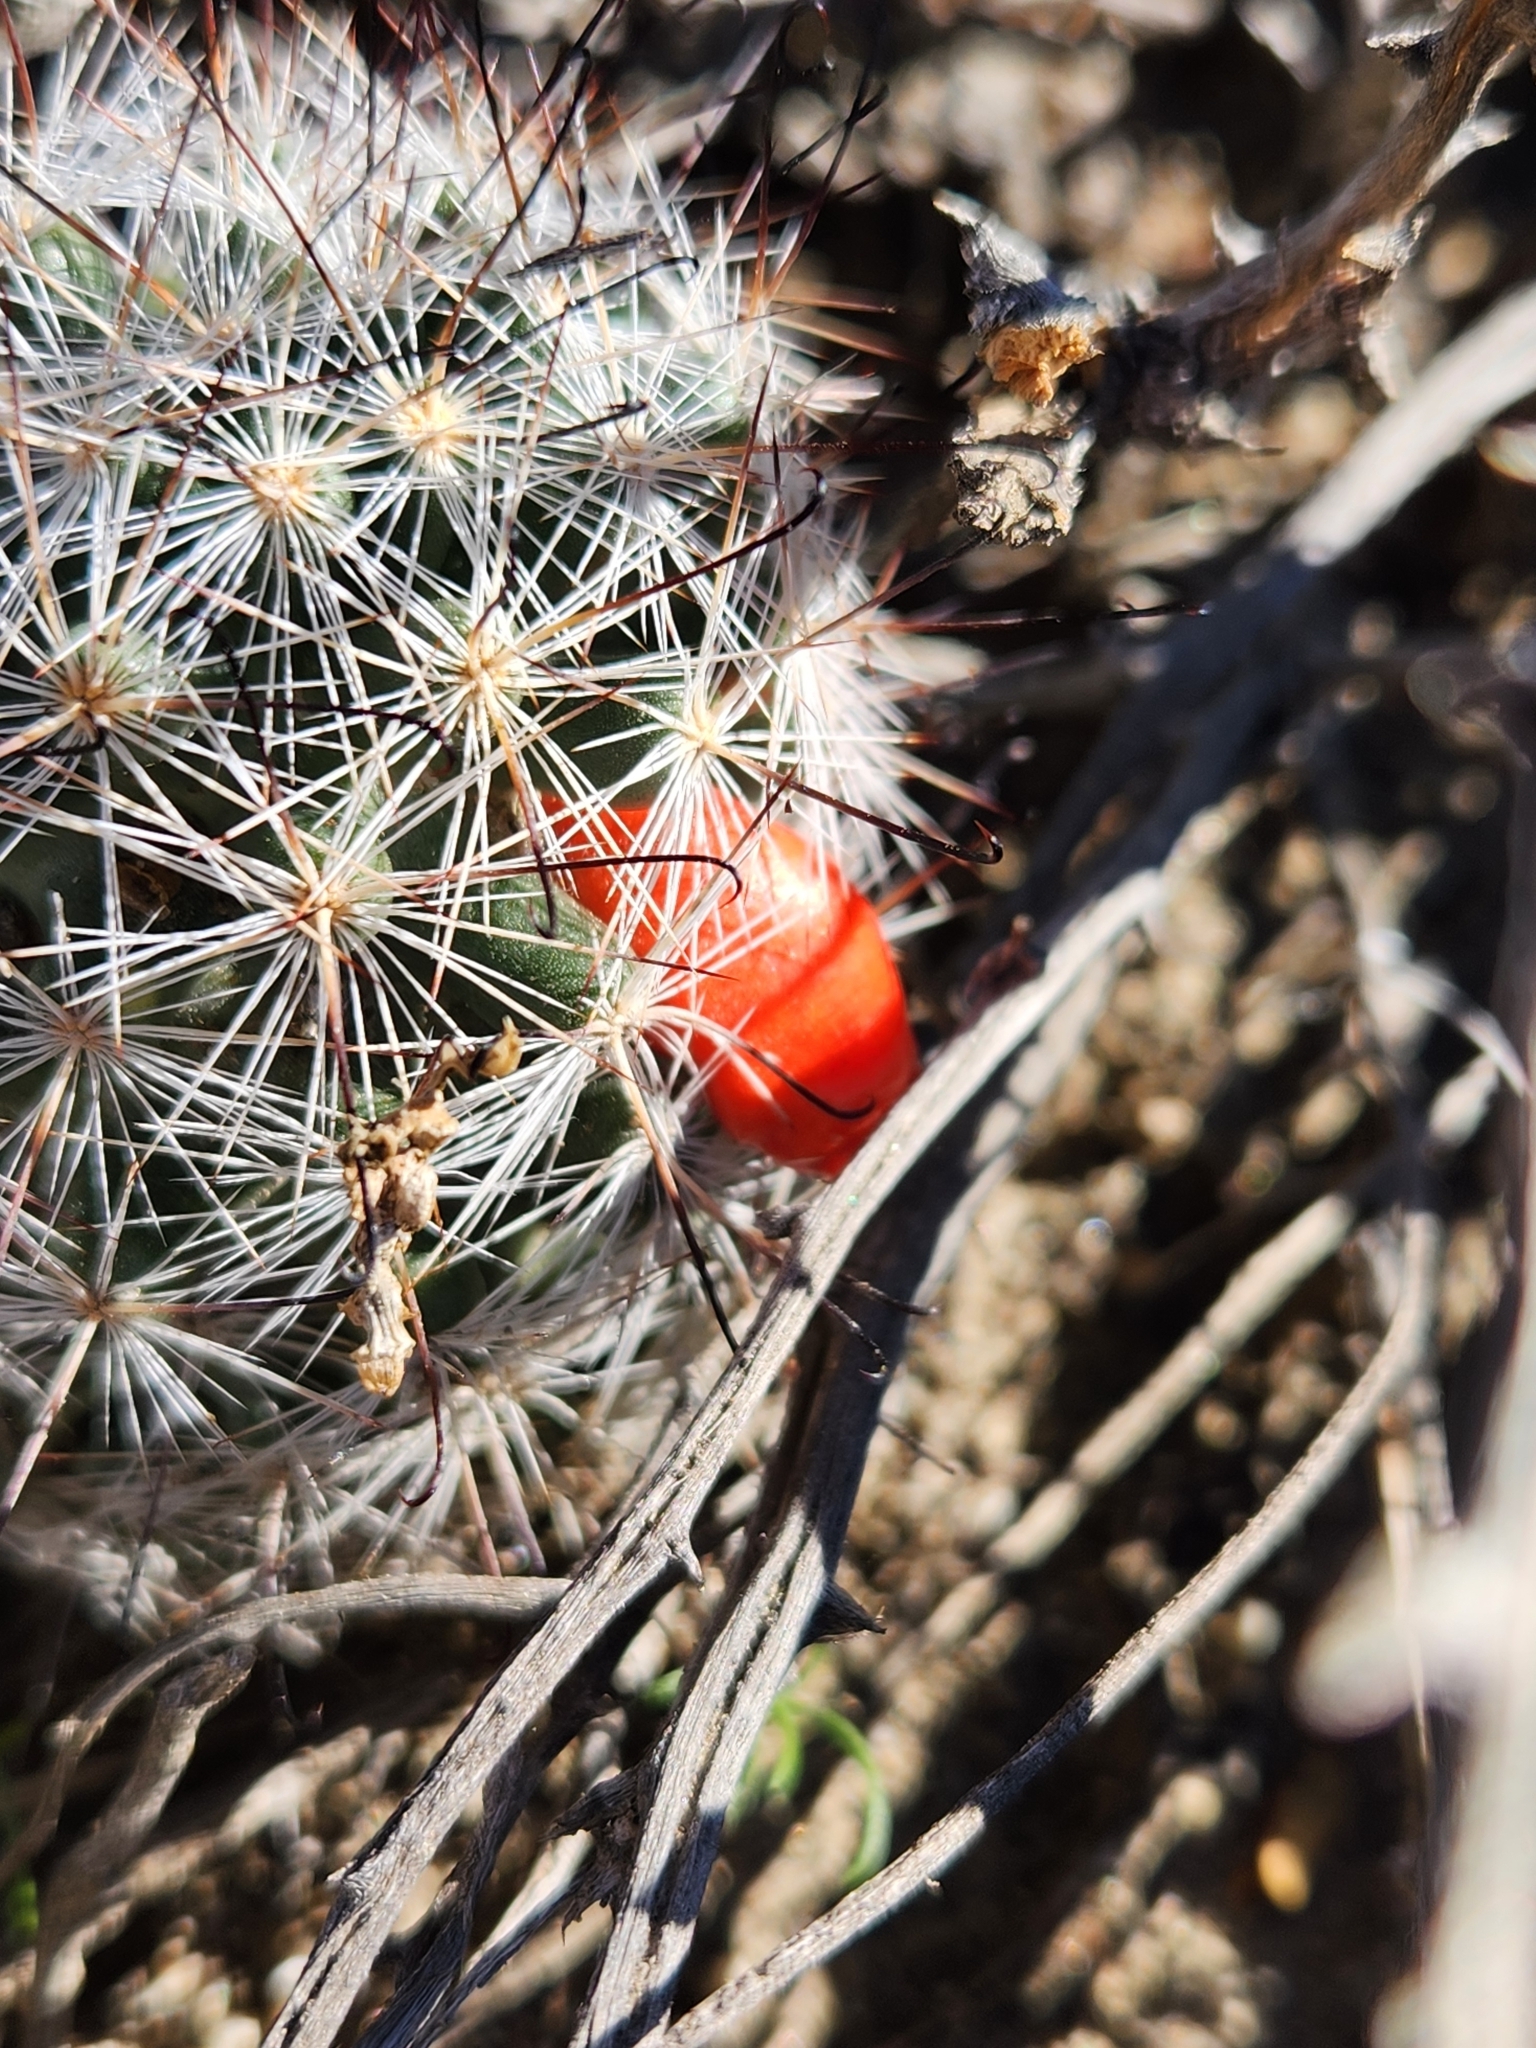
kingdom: Plantae
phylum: Tracheophyta
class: Magnoliopsida
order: Caryophyllales
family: Cactaceae
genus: Cochemiea
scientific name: Cochemiea tetrancistra
